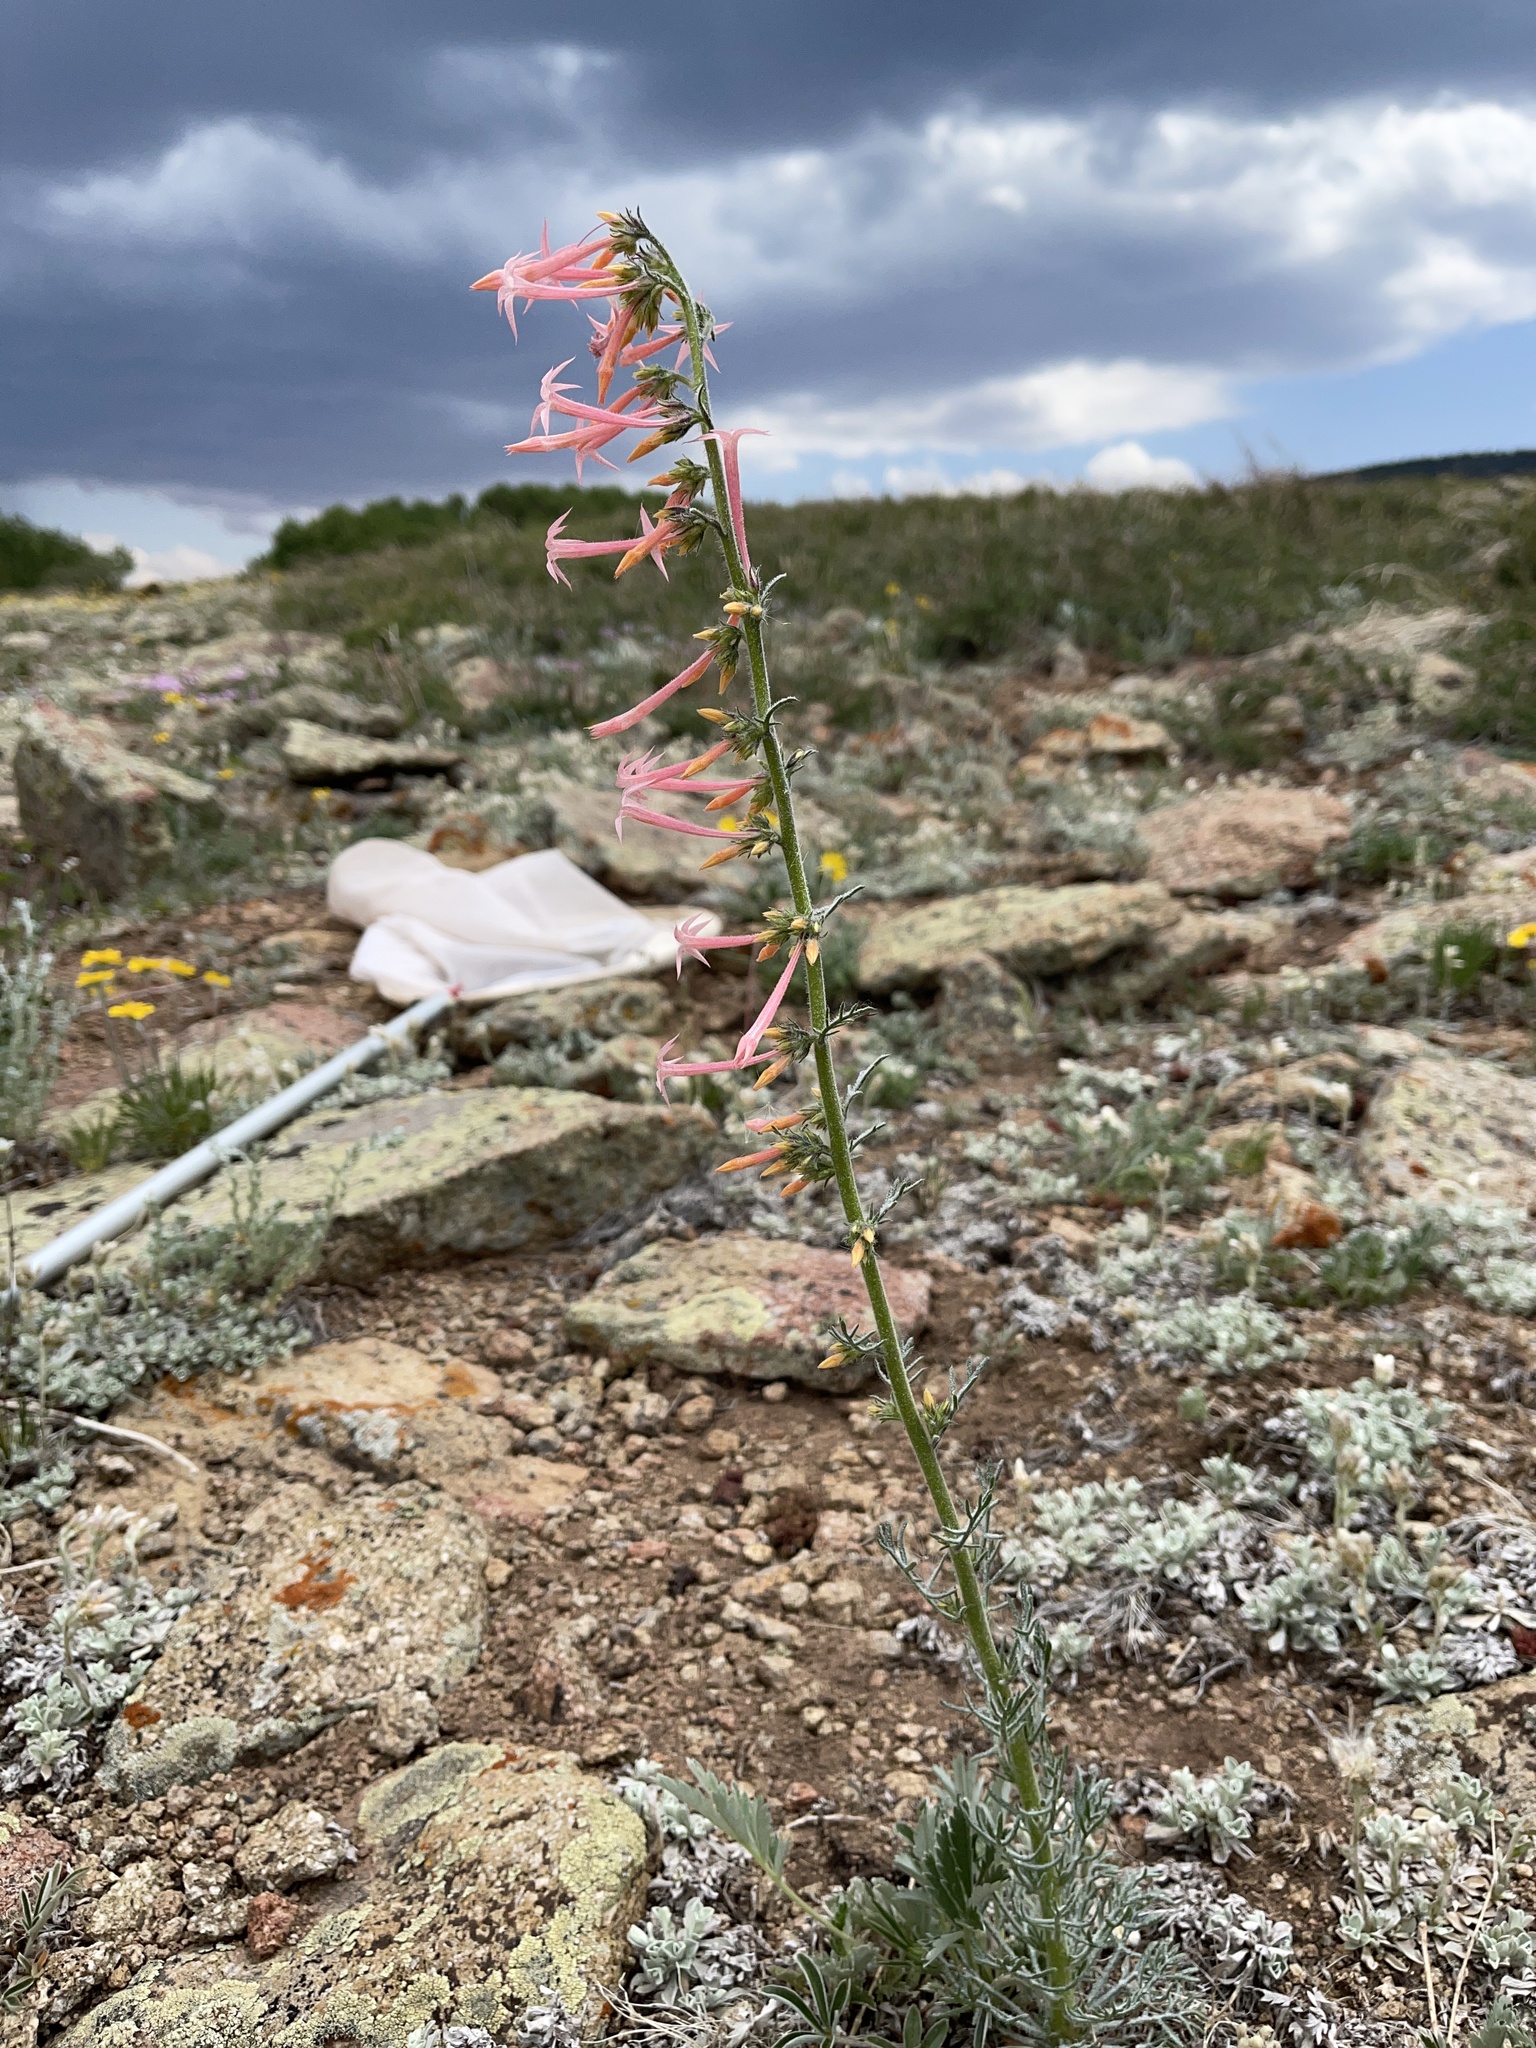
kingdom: Plantae
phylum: Tracheophyta
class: Magnoliopsida
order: Ericales
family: Polemoniaceae
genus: Ipomopsis
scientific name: Ipomopsis tenuituba
